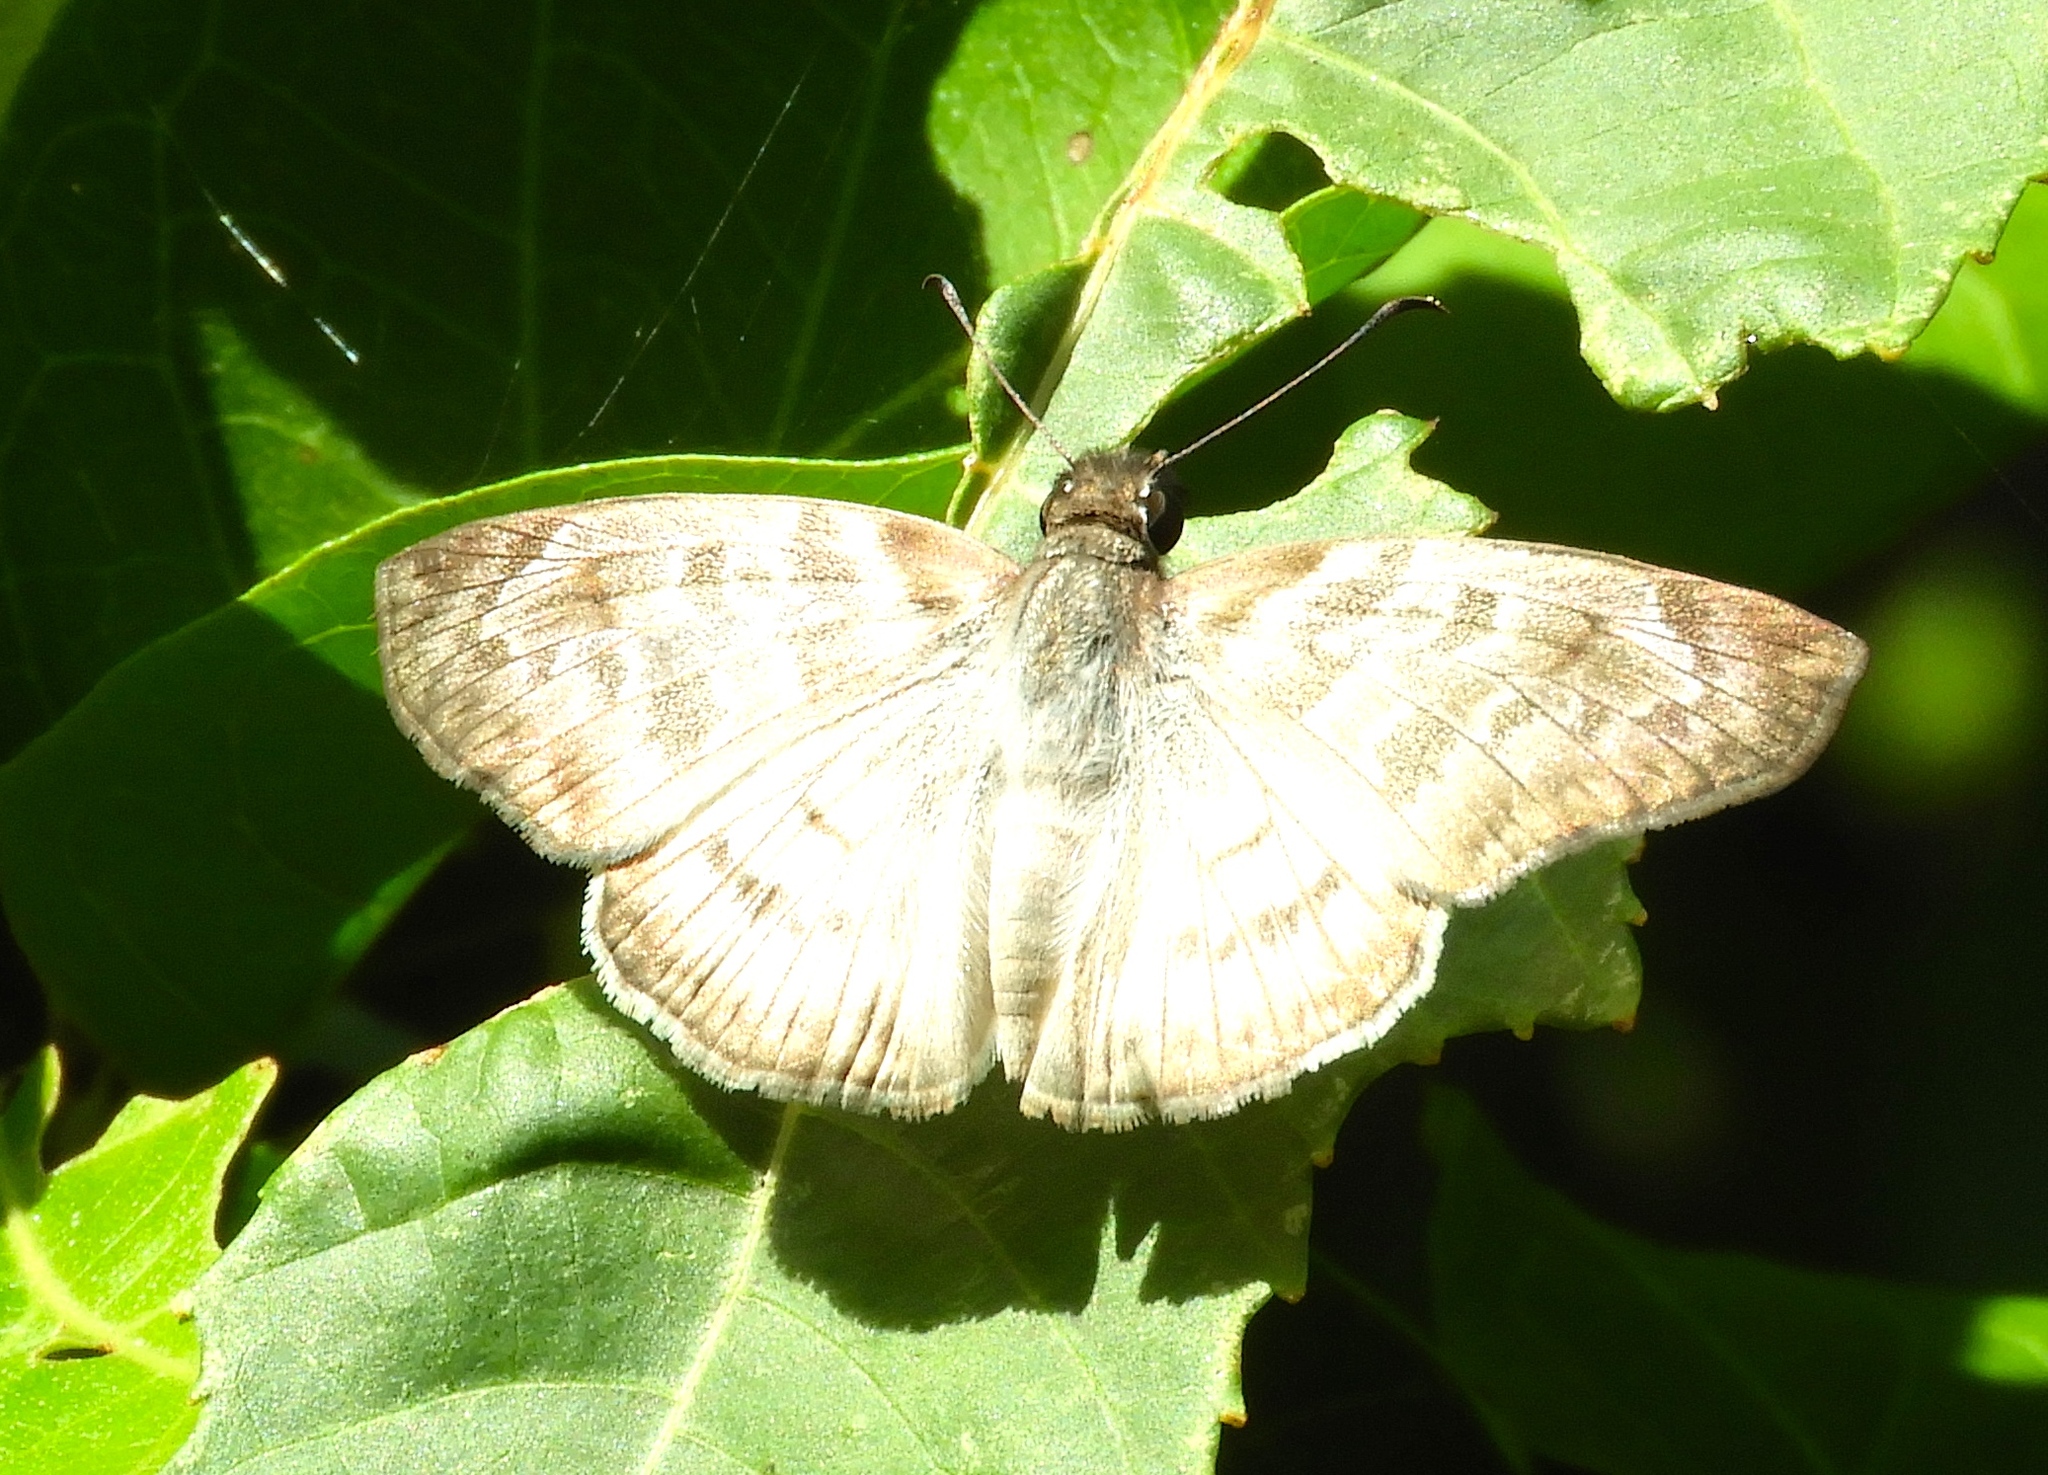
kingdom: Animalia
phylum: Arthropoda
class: Insecta
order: Lepidoptera
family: Hesperiidae
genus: Mylon
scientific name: Mylon pelopidas
